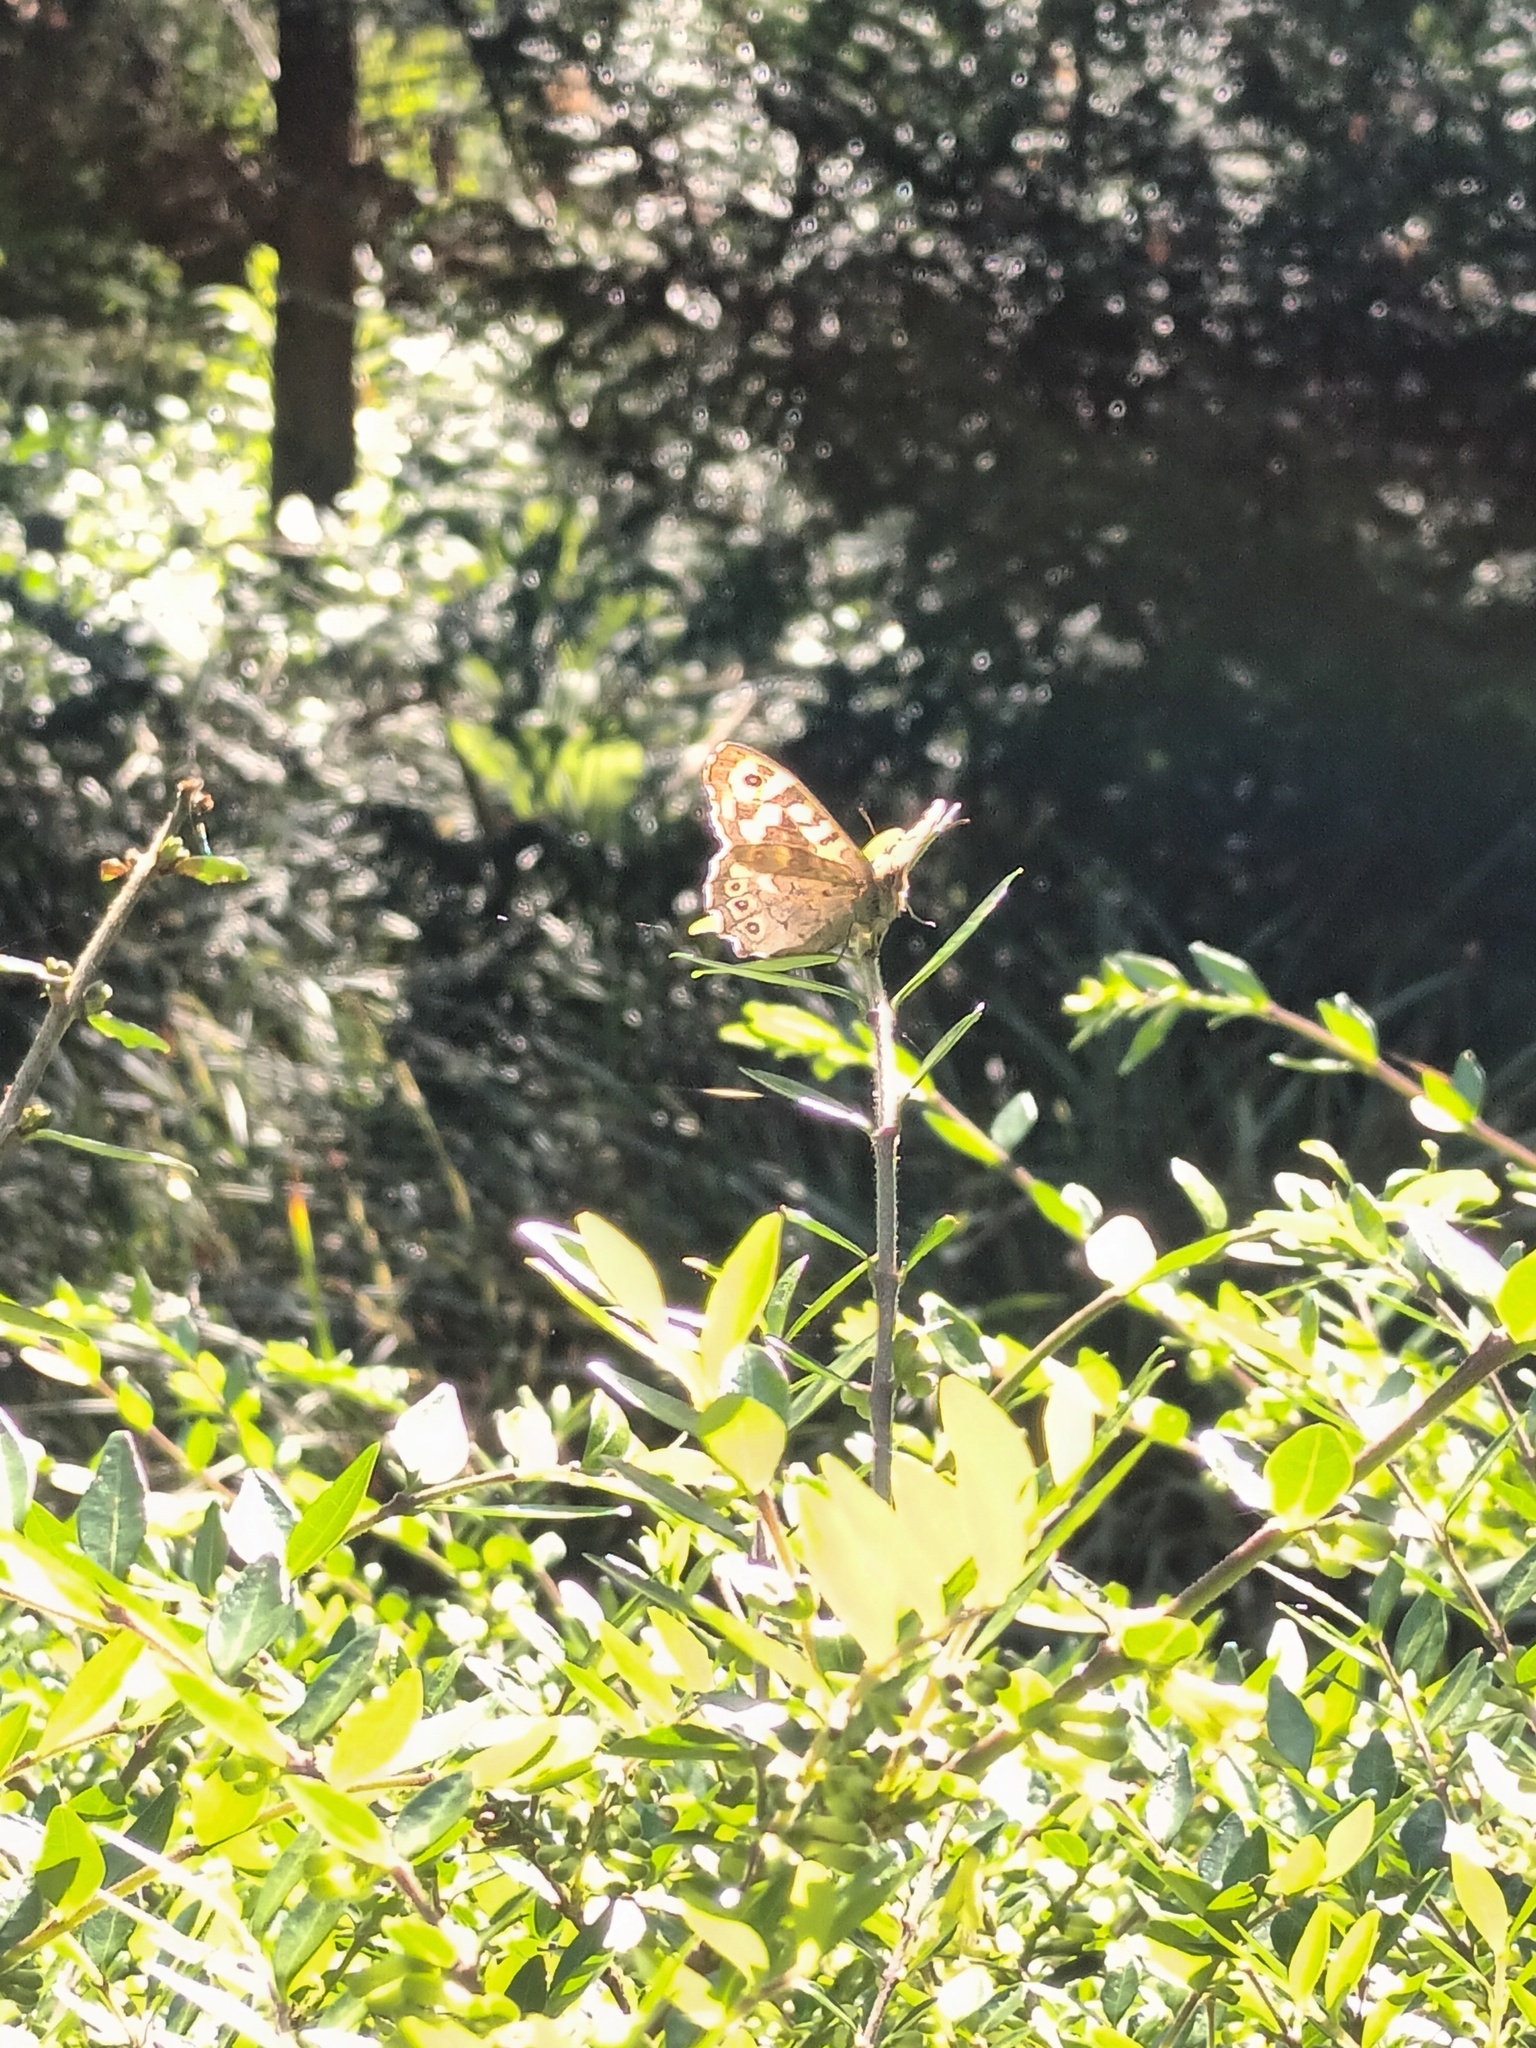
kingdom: Animalia
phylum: Arthropoda
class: Insecta
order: Lepidoptera
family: Nymphalidae
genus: Pararge
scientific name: Pararge aegeria
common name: Speckled wood
